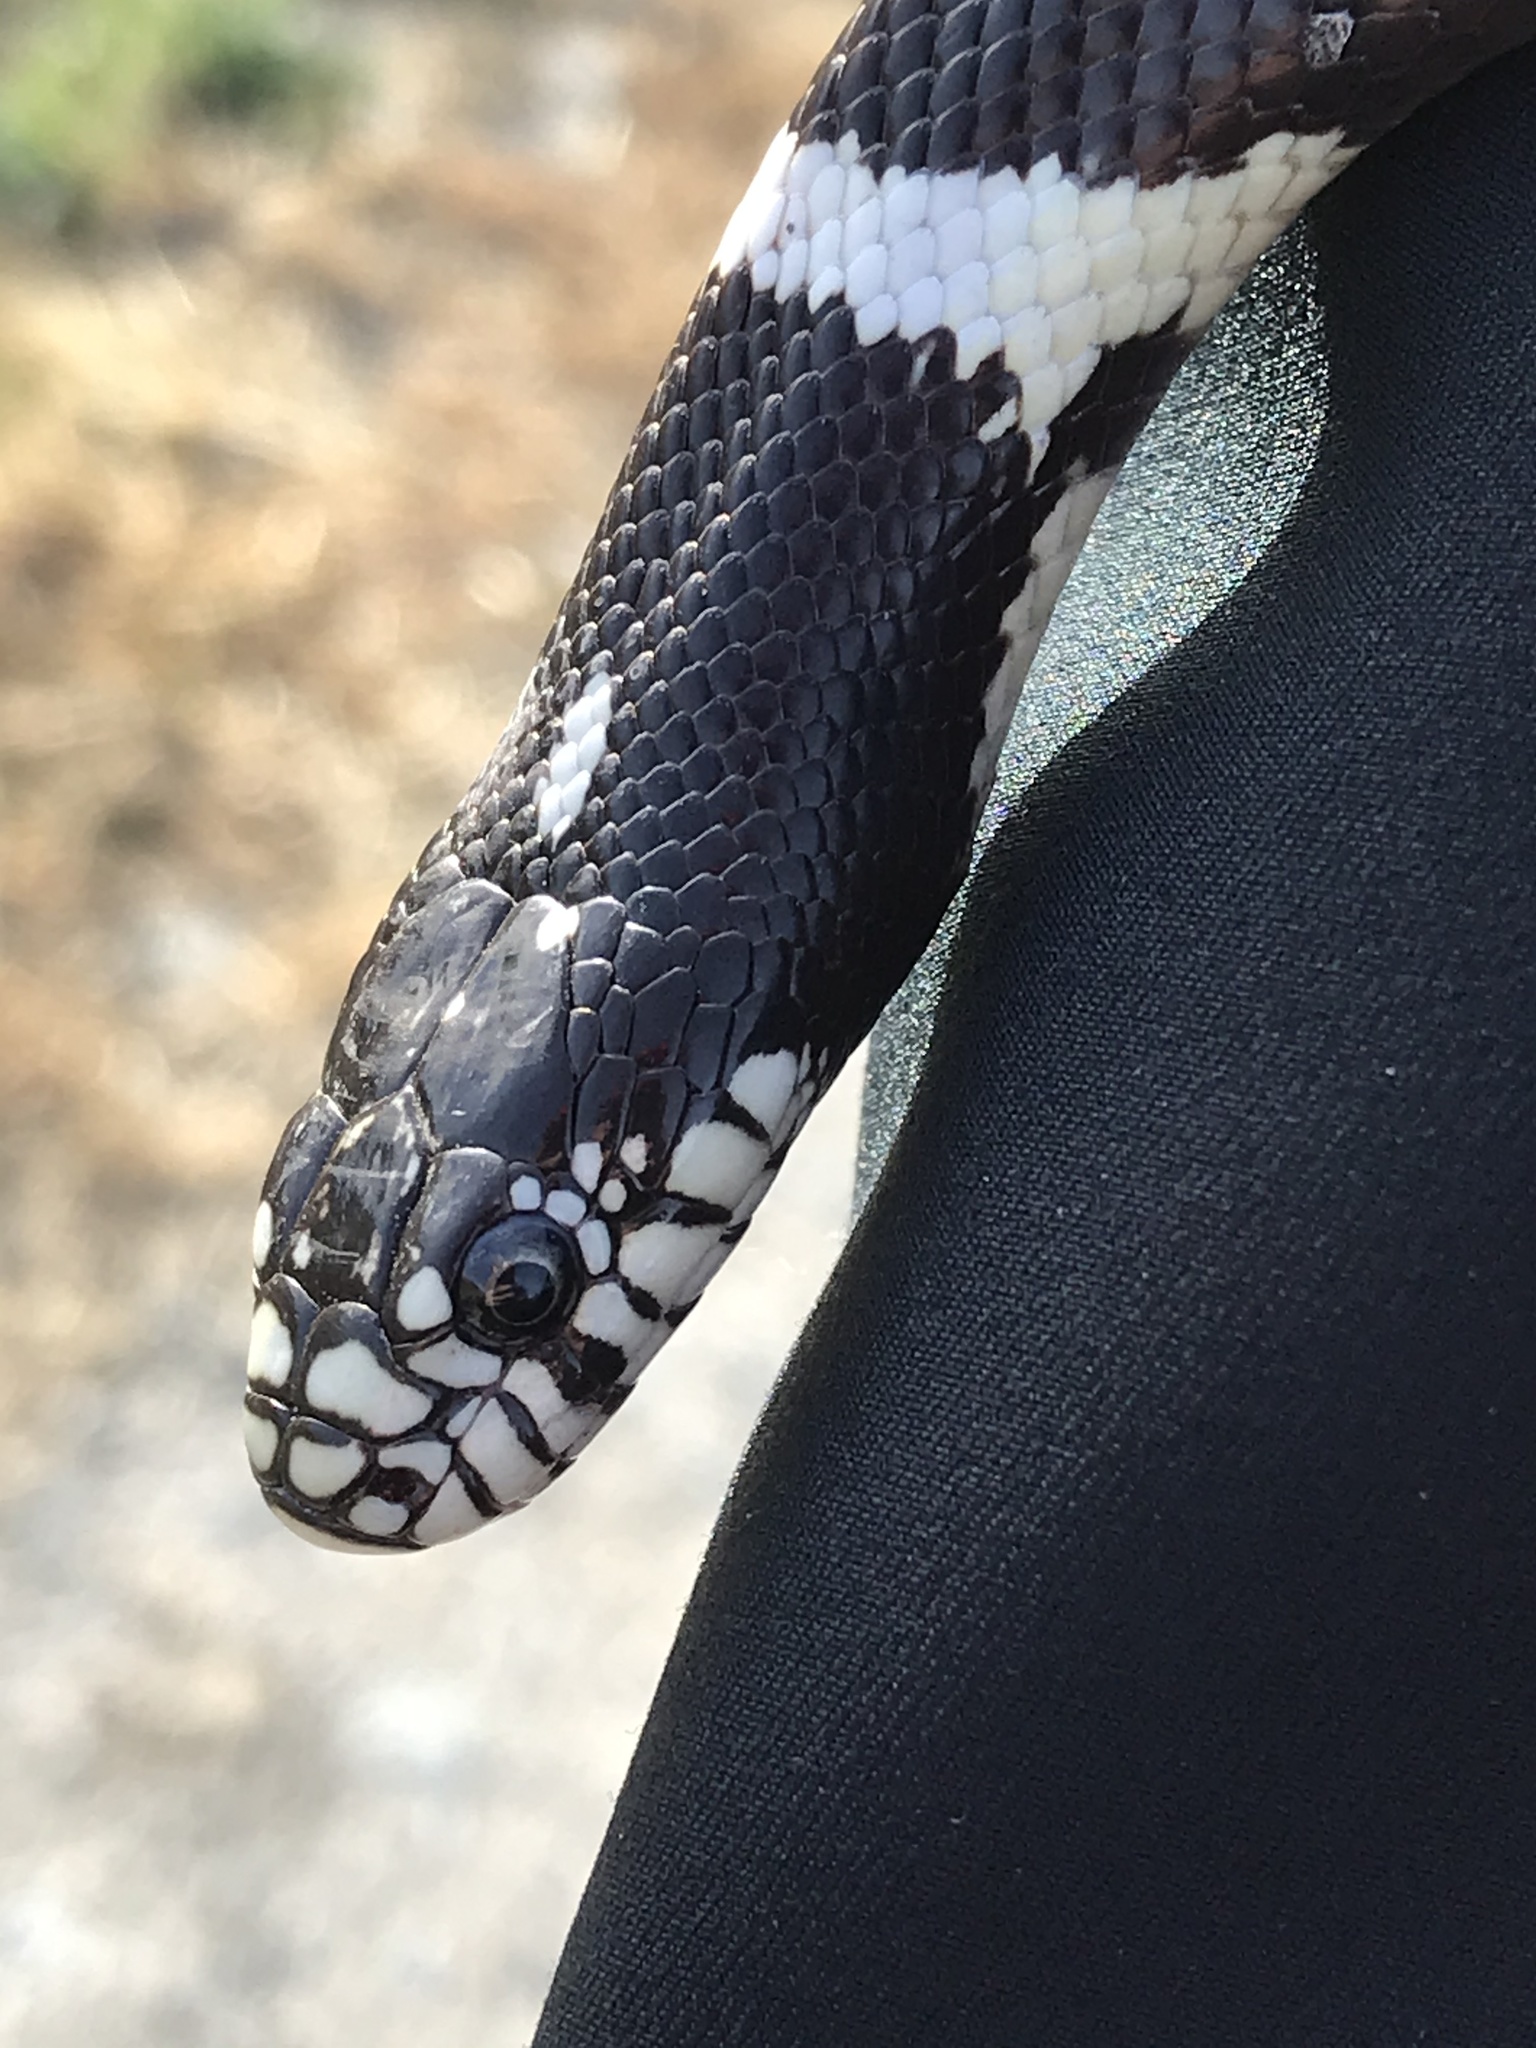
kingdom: Animalia
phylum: Chordata
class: Squamata
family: Colubridae
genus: Lampropeltis
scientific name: Lampropeltis californiae
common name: California kingsnake
